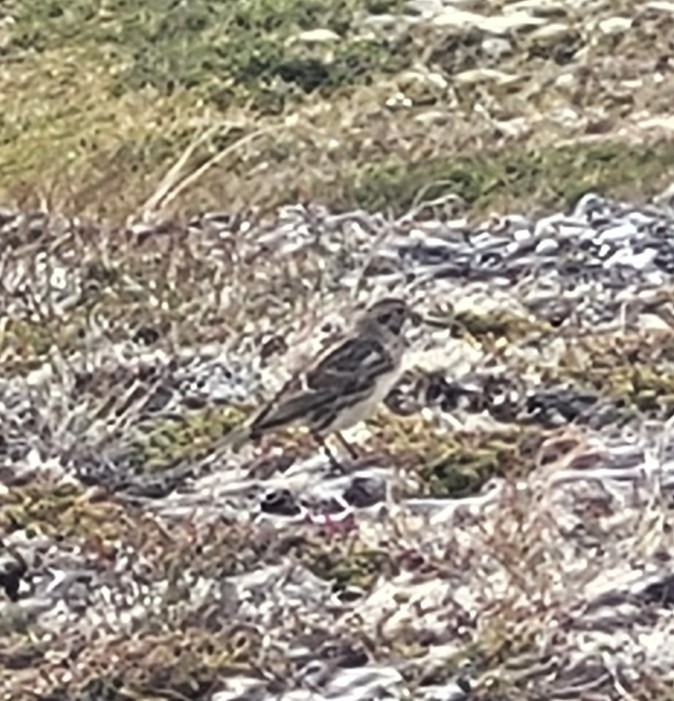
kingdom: Animalia
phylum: Chordata
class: Aves
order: Passeriformes
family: Calcariidae
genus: Calcarius
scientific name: Calcarius lapponicus
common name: Lapland longspur
